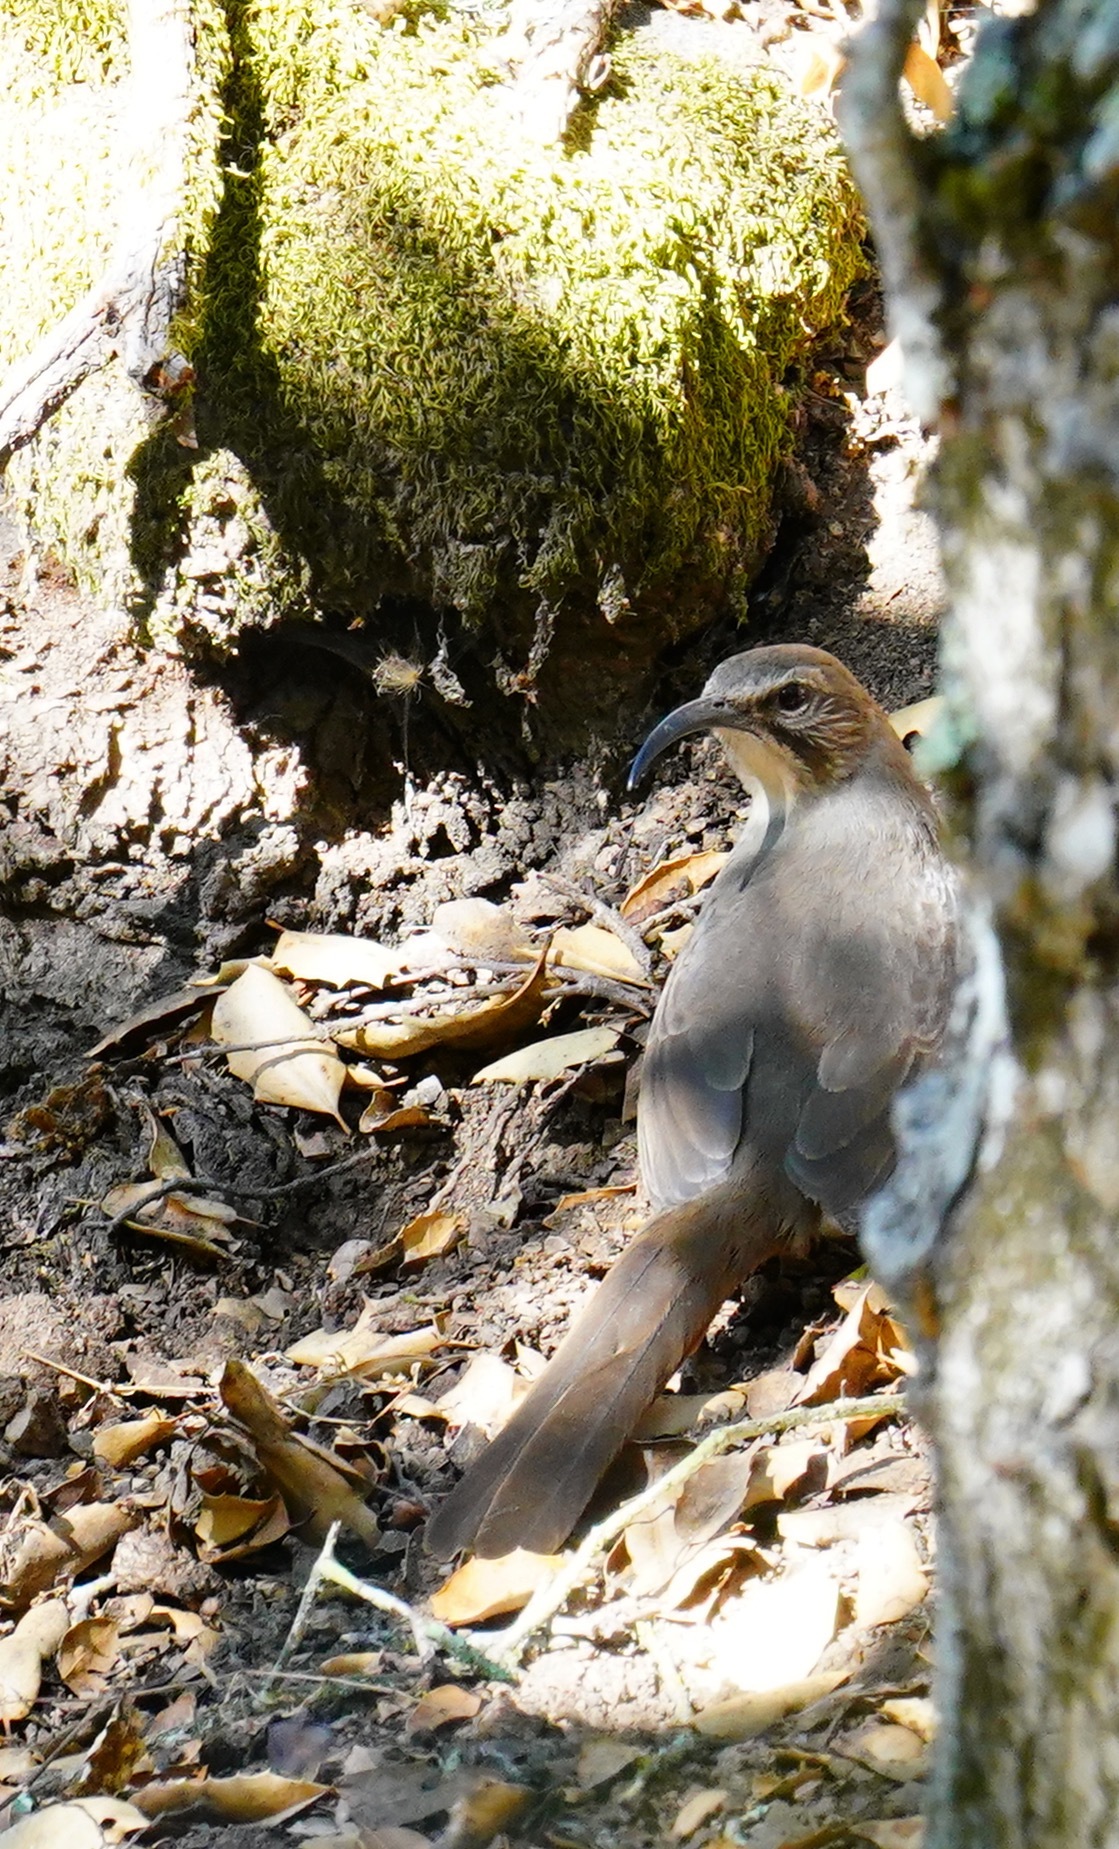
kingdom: Animalia
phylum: Chordata
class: Aves
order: Passeriformes
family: Mimidae
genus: Toxostoma
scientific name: Toxostoma redivivum
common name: California thrasher
